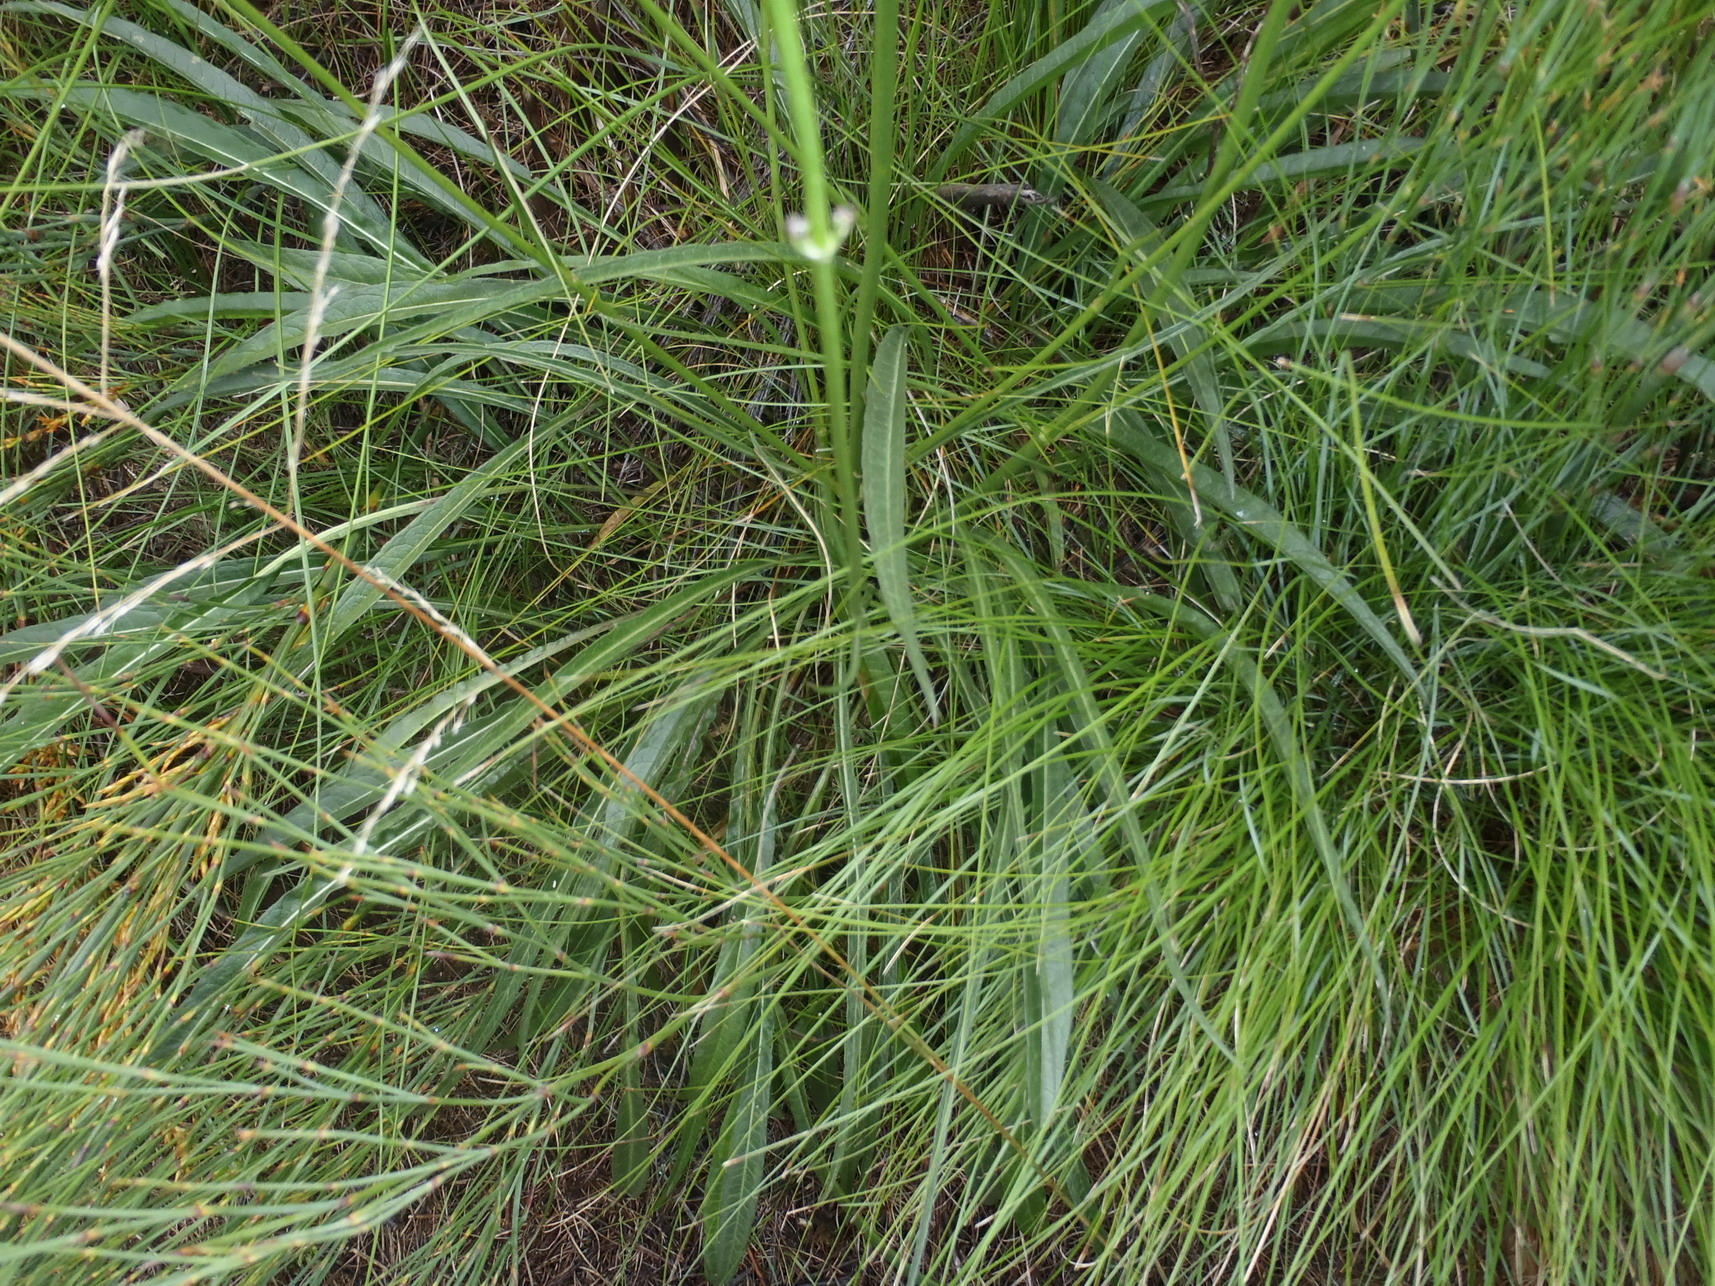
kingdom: Plantae
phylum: Tracheophyta
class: Magnoliopsida
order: Dipsacales
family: Caprifoliaceae
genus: Cephalaria
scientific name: Cephalaria humilis
